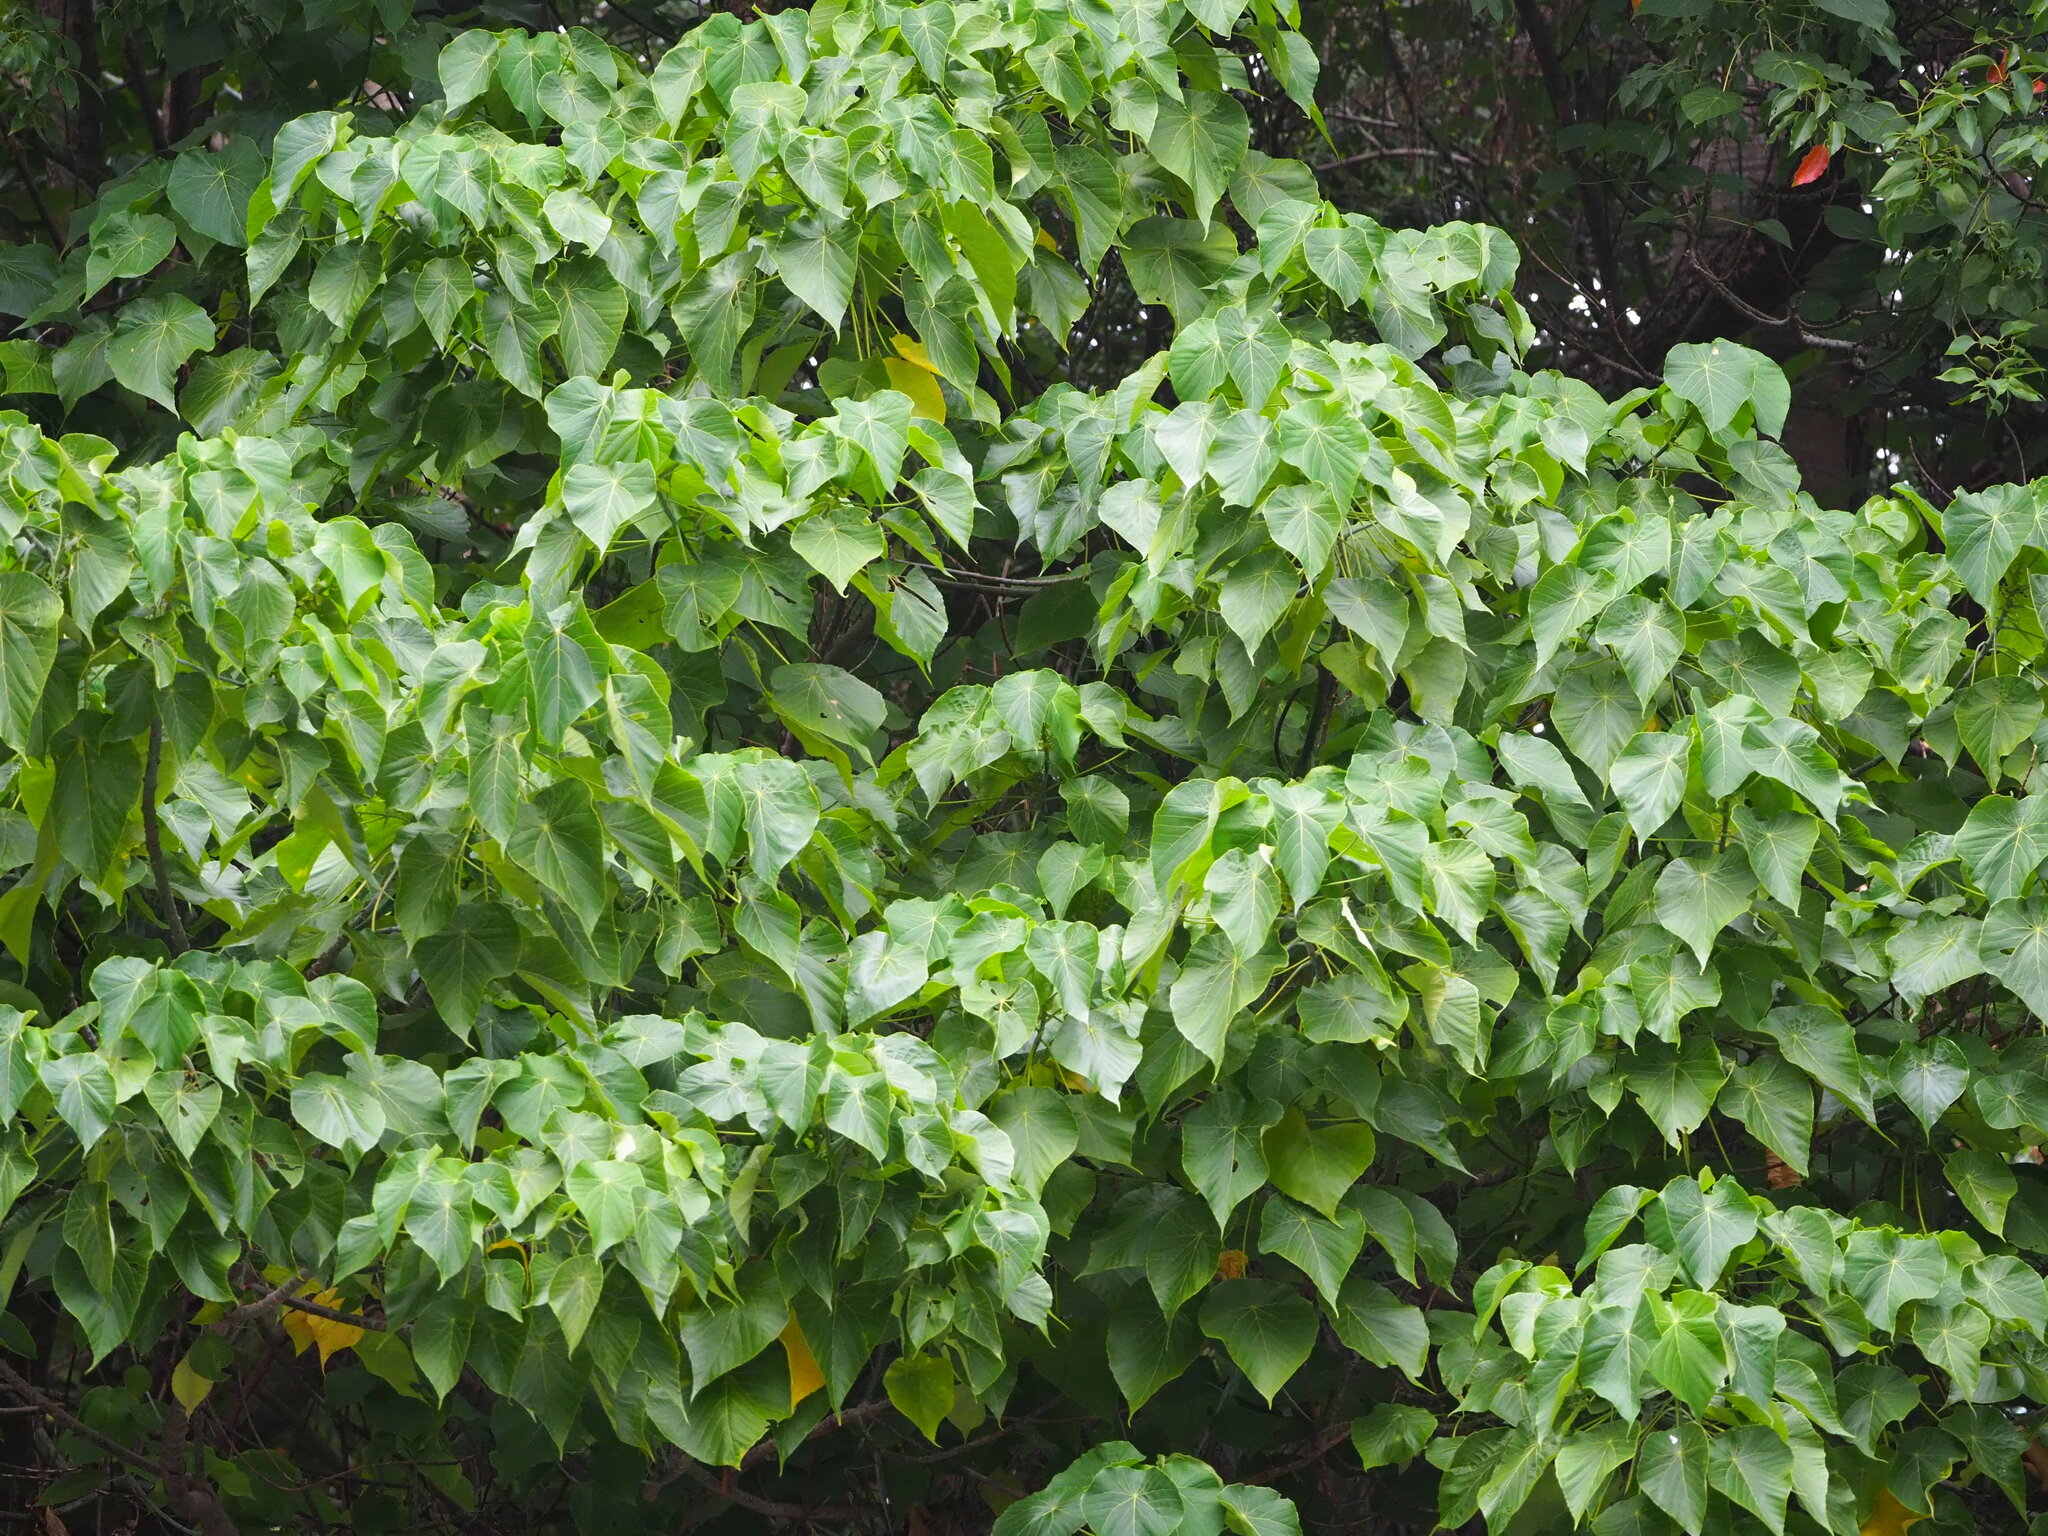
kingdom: Plantae
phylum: Tracheophyta
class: Magnoliopsida
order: Malpighiales
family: Euphorbiaceae
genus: Macaranga
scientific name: Macaranga tanarius
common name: Parasol leaf tree
